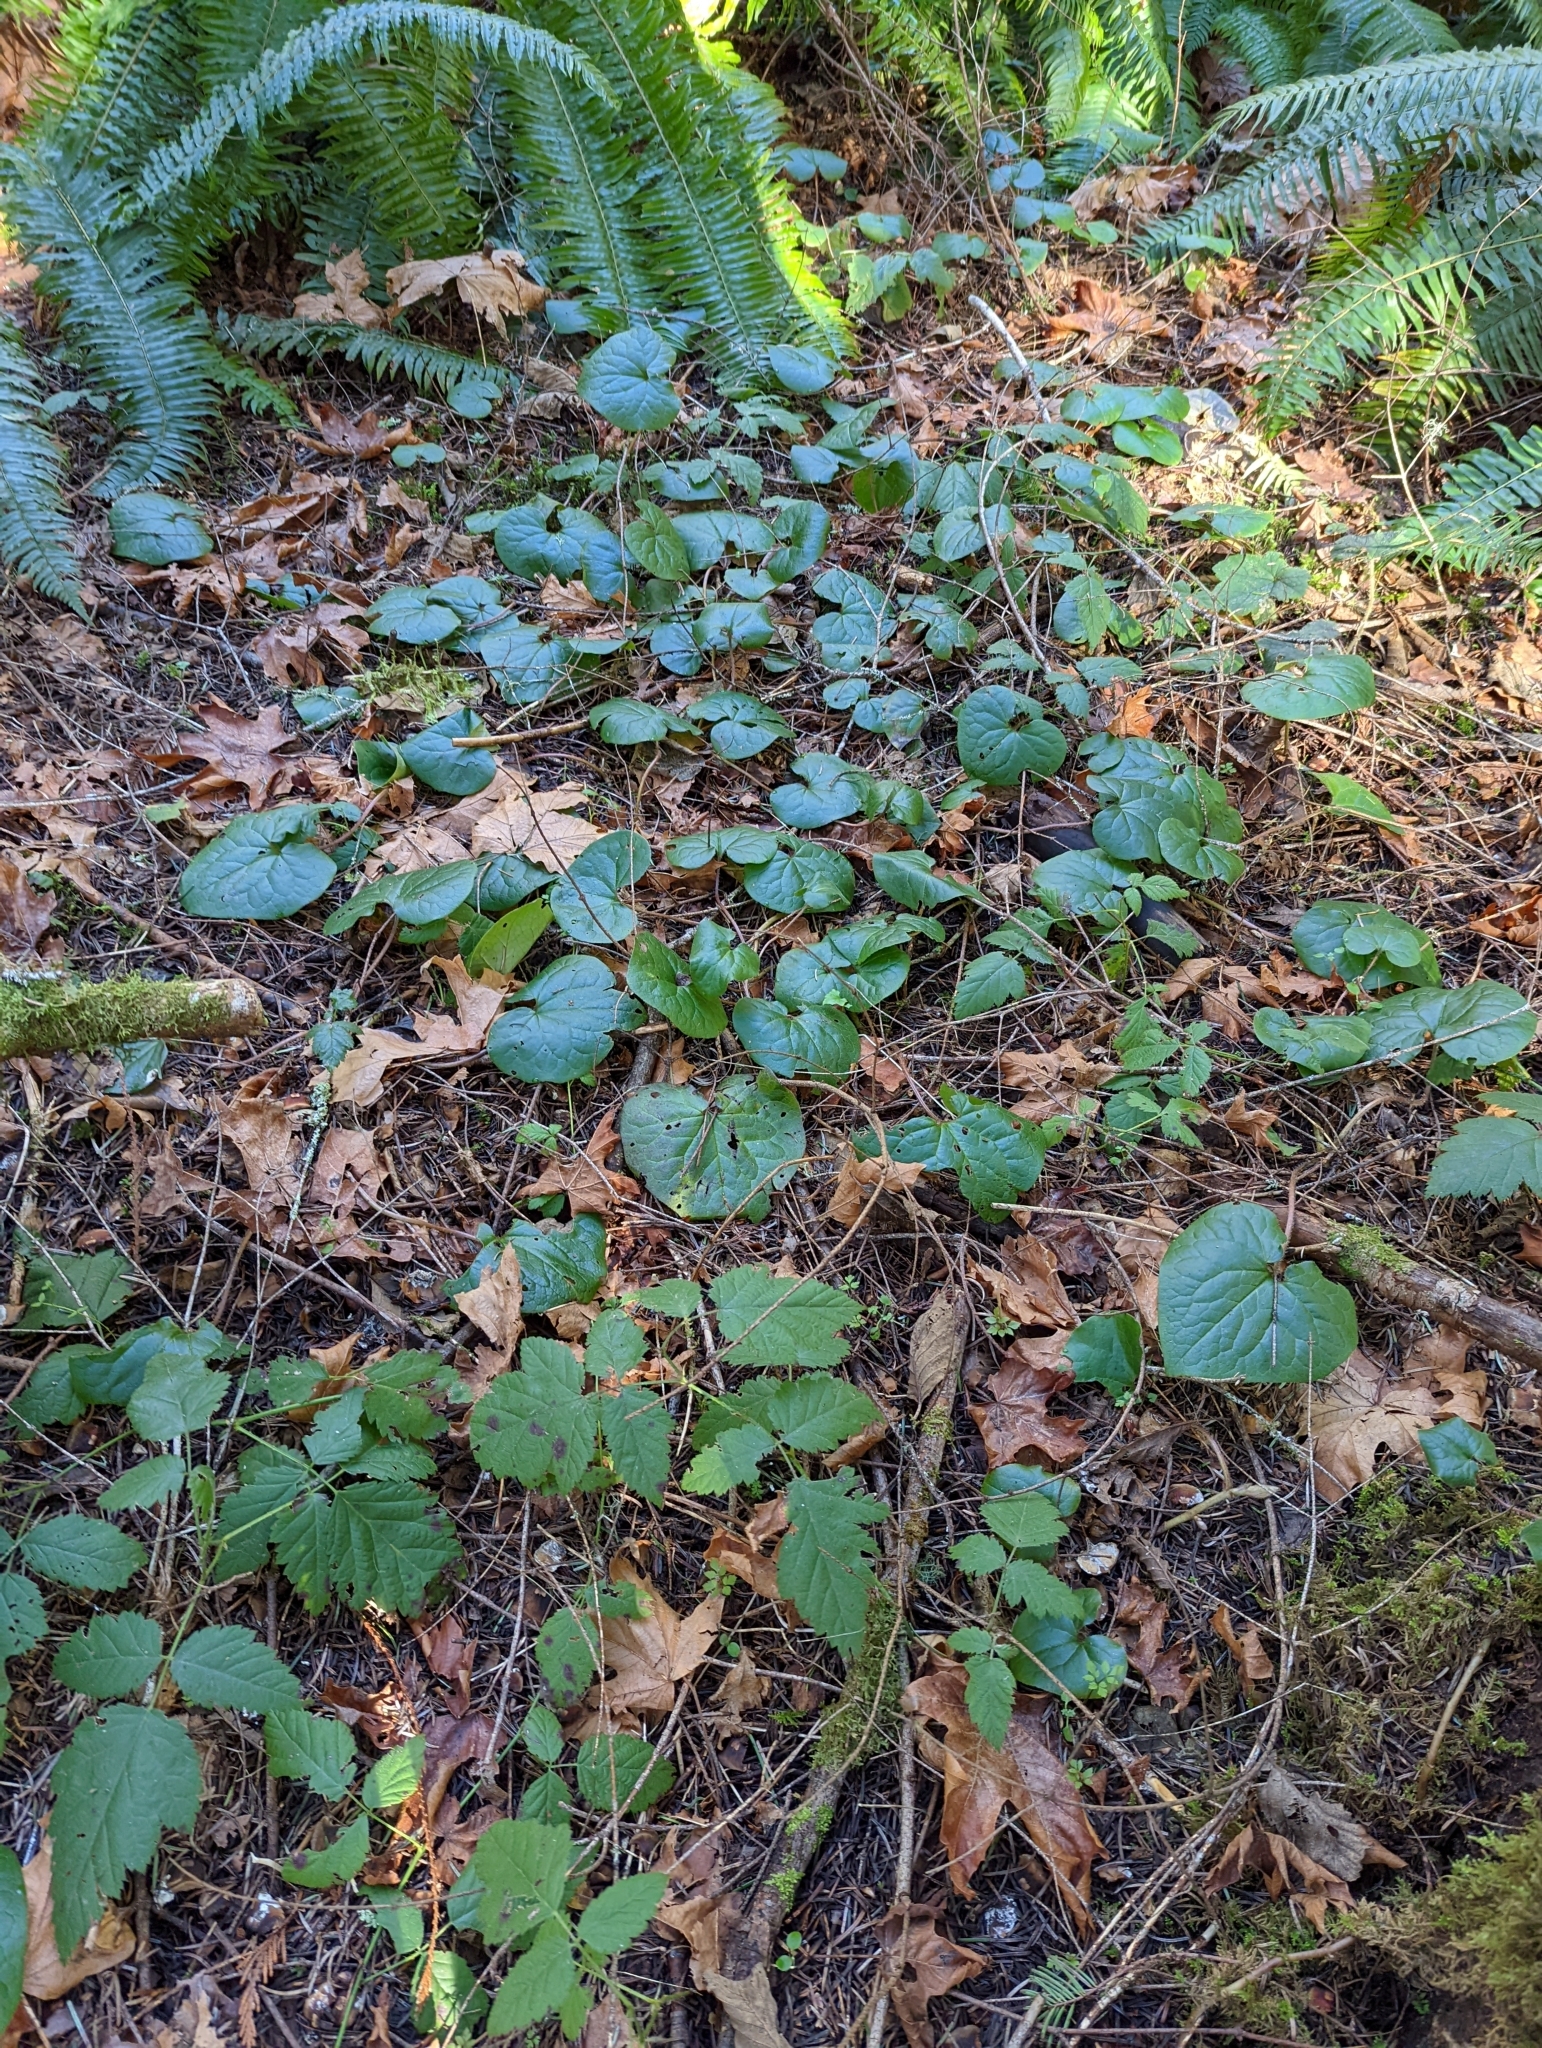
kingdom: Plantae
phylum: Tracheophyta
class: Magnoliopsida
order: Piperales
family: Aristolochiaceae
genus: Asarum
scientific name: Asarum caudatum
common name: Wild ginger
